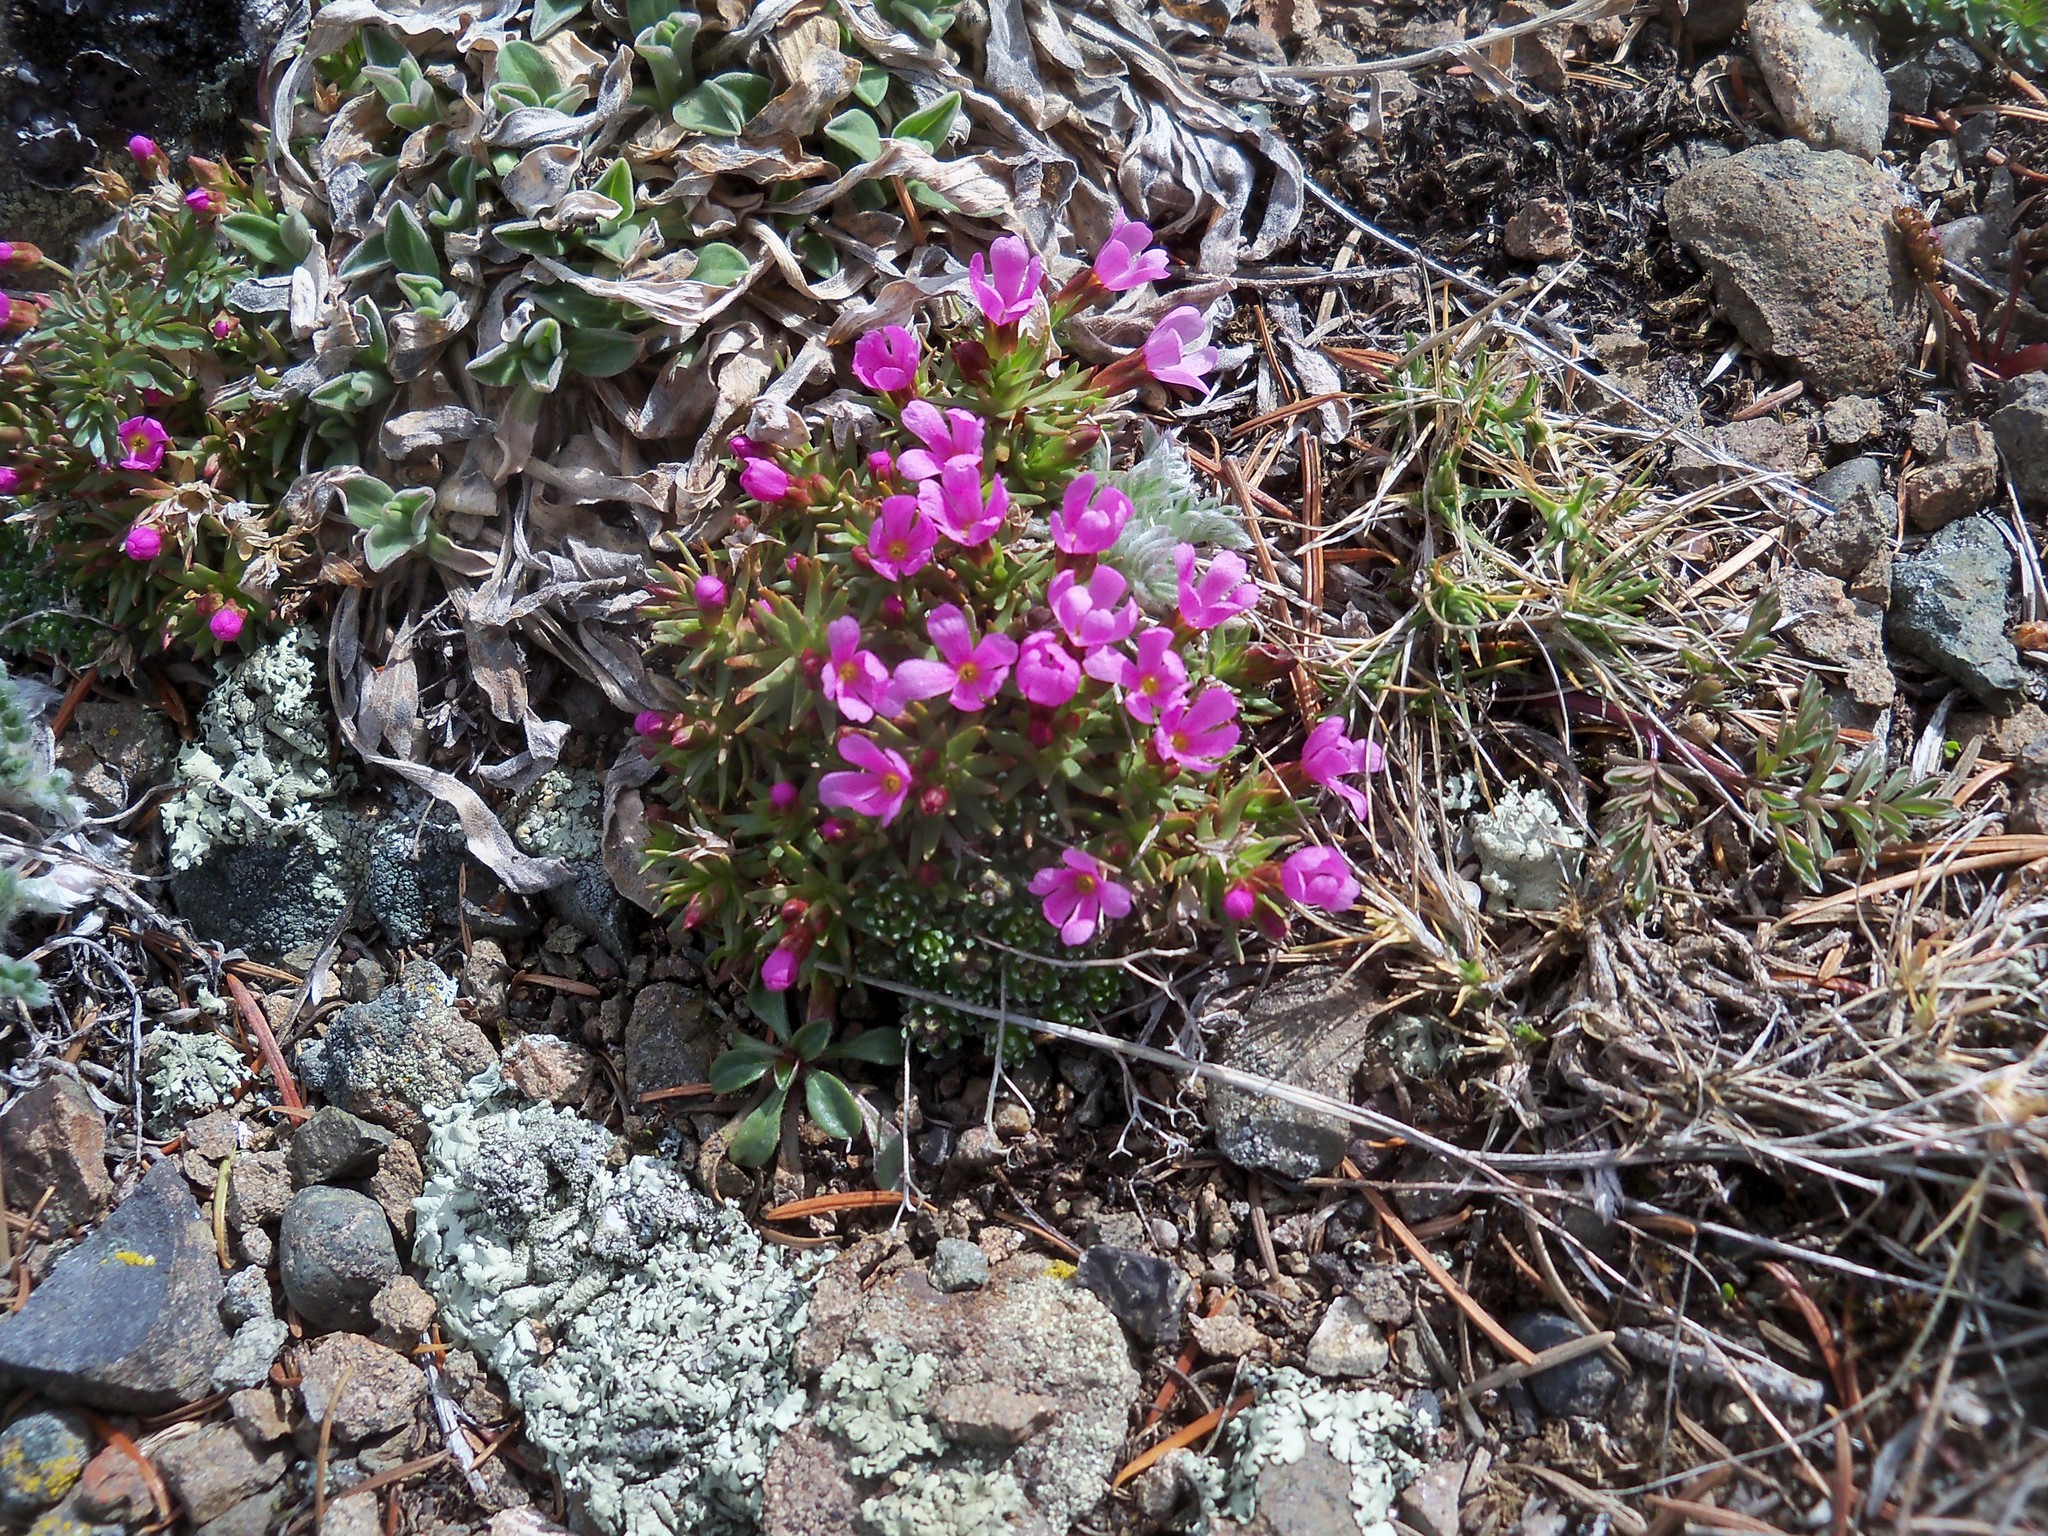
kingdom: Plantae
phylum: Tracheophyta
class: Magnoliopsida
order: Ericales
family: Primulaceae
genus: Androsace
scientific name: Androsace montana
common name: Rocky mountain dwarf-primrose
